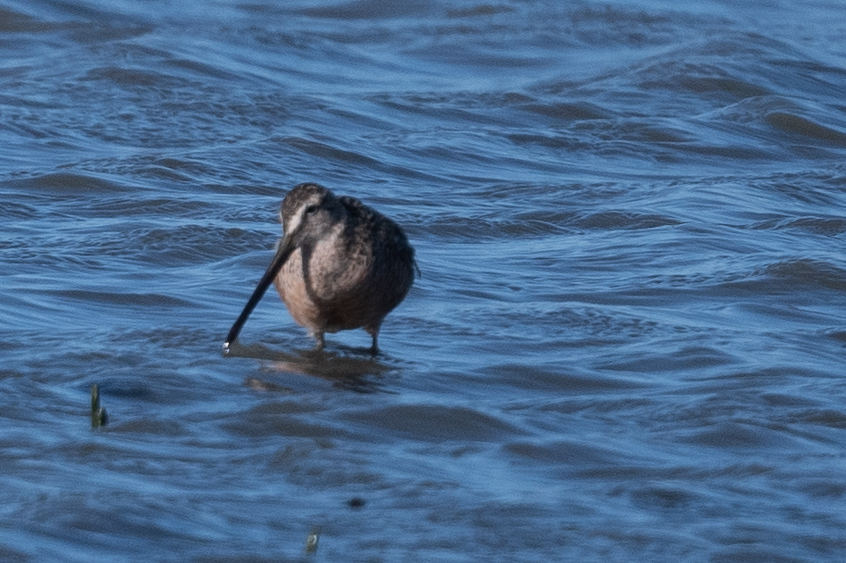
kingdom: Animalia
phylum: Chordata
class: Aves
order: Charadriiformes
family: Scolopacidae
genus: Limnodromus
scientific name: Limnodromus scolopaceus
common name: Long-billed dowitcher
